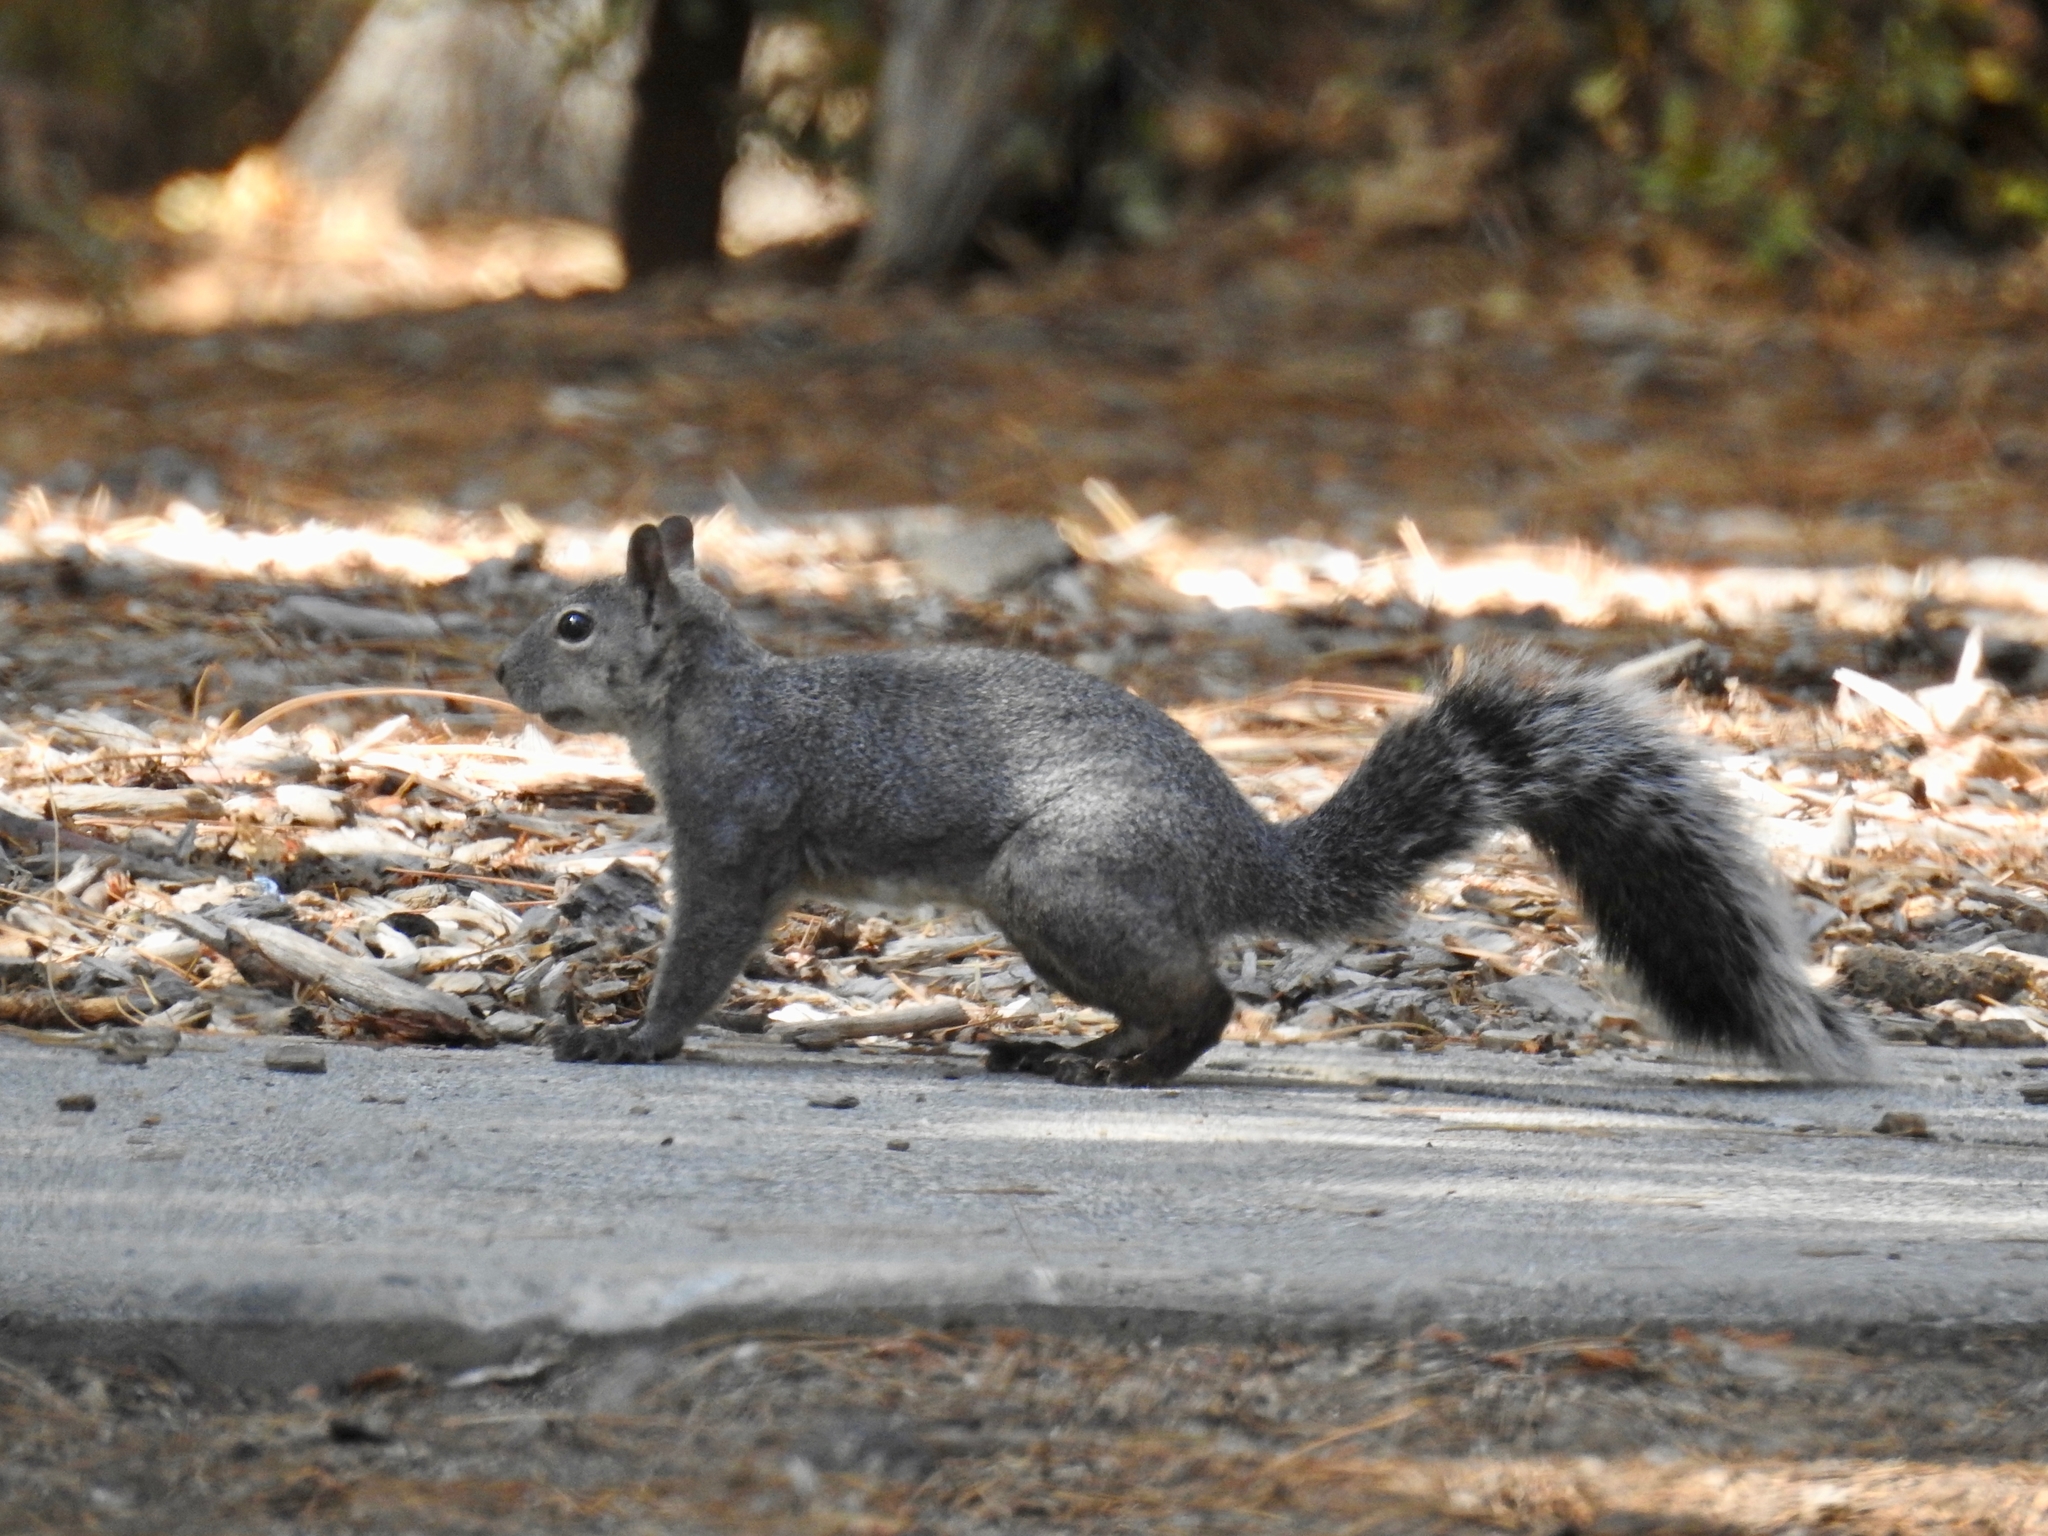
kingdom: Animalia
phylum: Chordata
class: Mammalia
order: Rodentia
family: Sciuridae
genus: Sciurus
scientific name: Sciurus griseus
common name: Western gray squirrel
